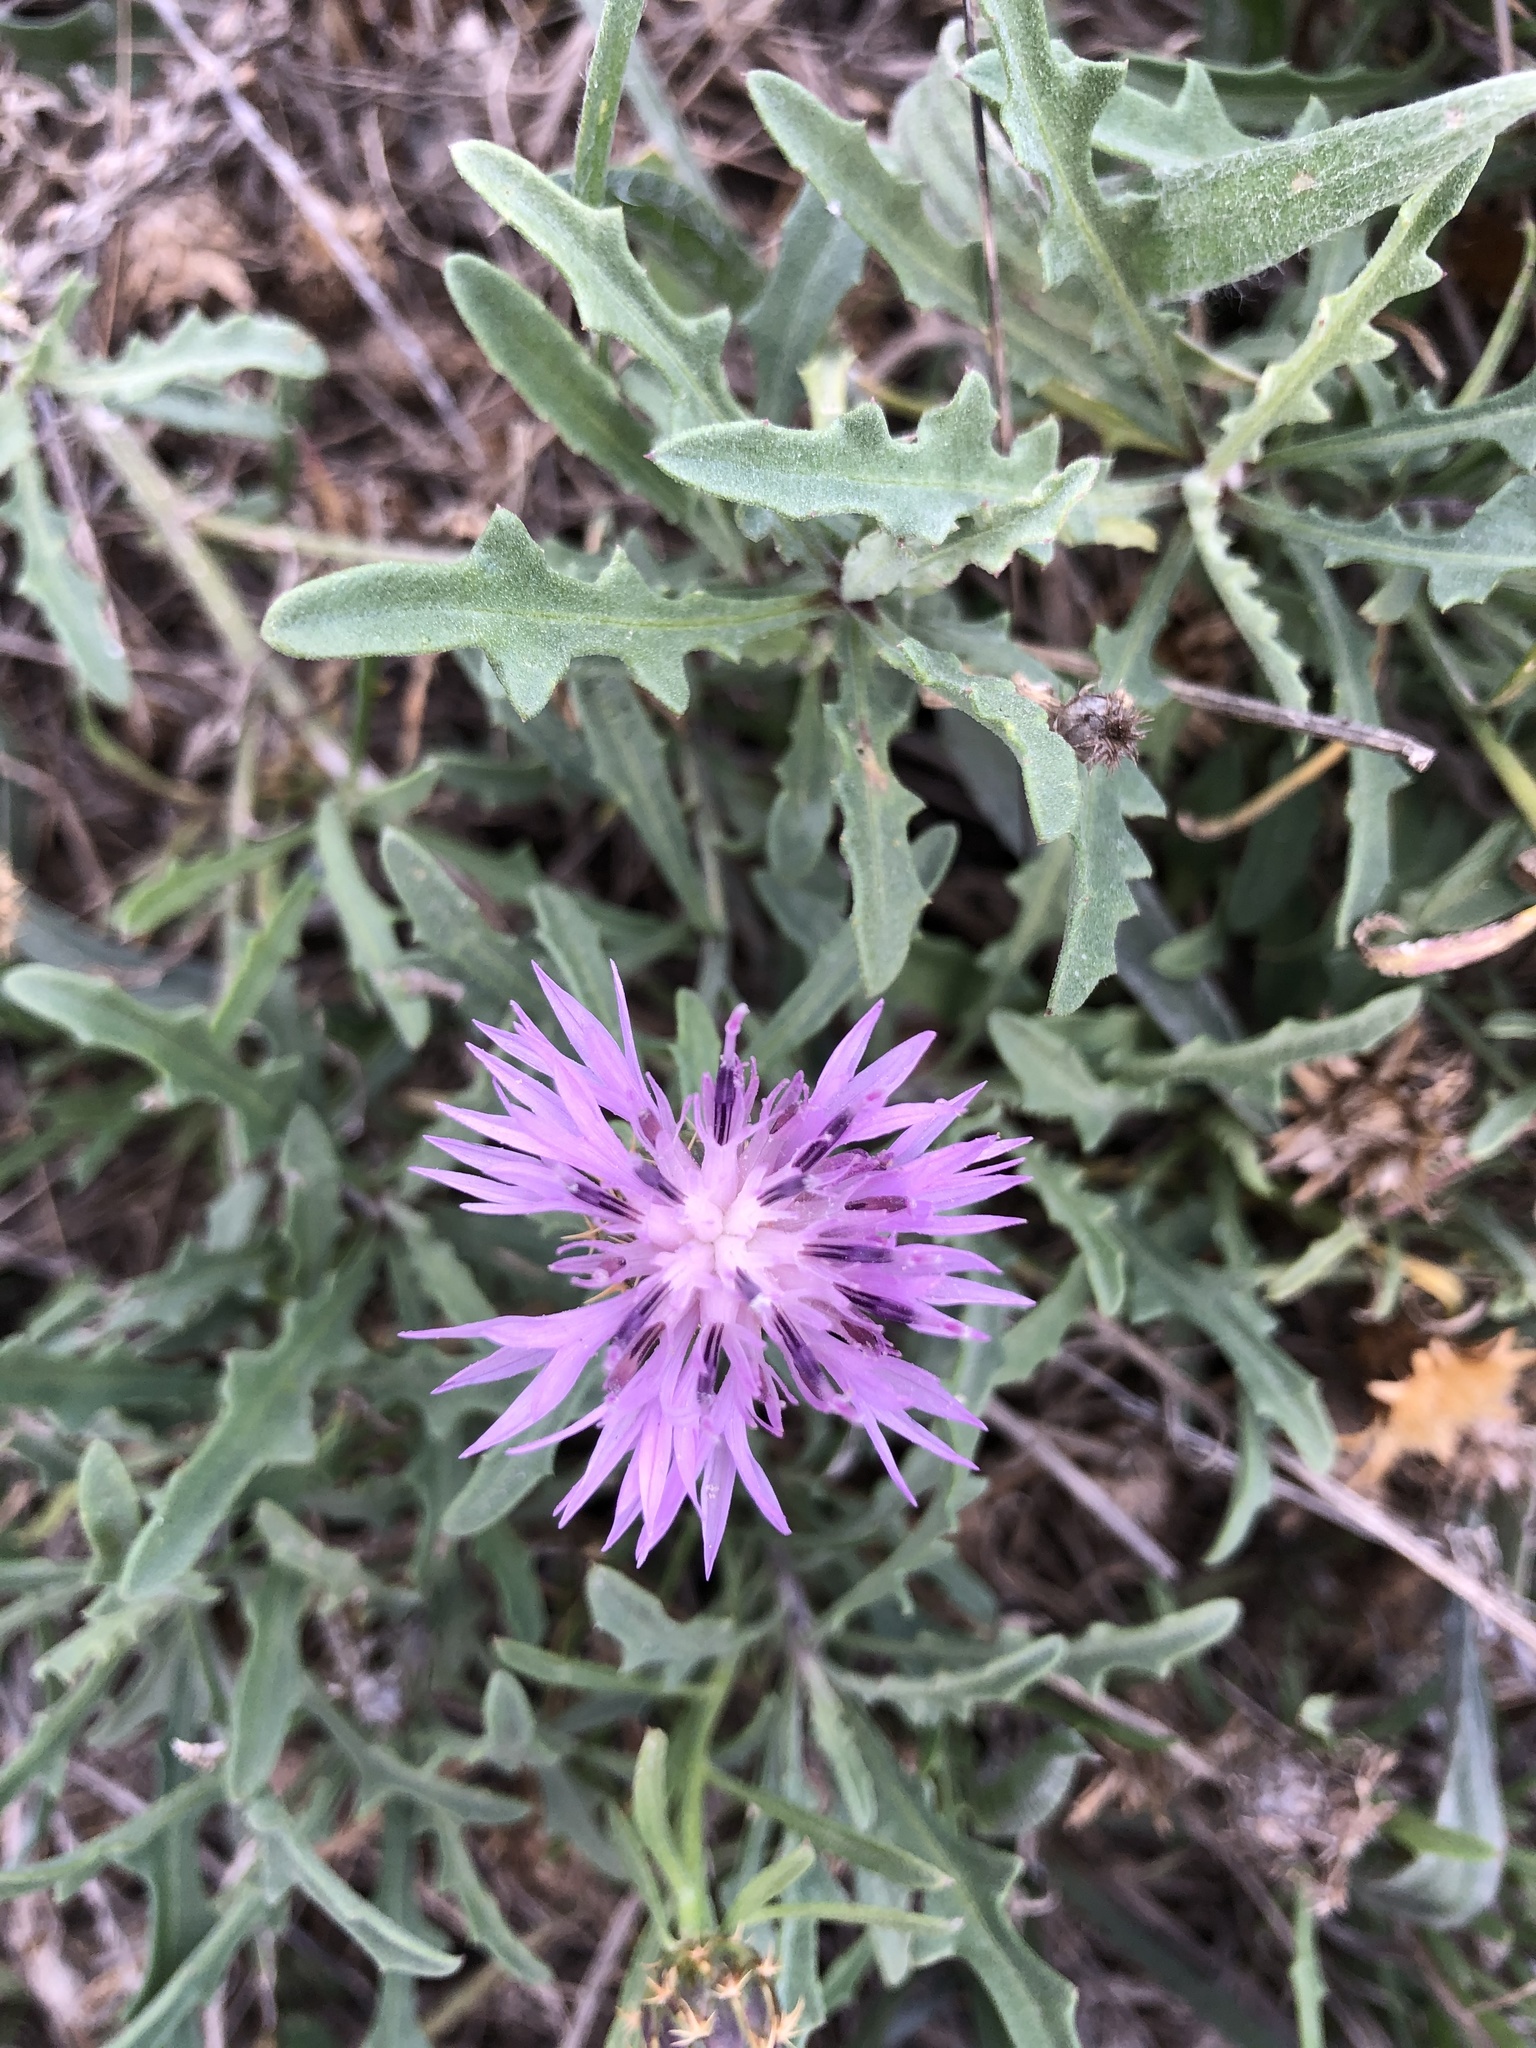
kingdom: Plantae
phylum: Tracheophyta
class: Magnoliopsida
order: Asterales
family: Asteraceae
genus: Centaurea
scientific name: Centaurea aspera
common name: Rough star-thistle
